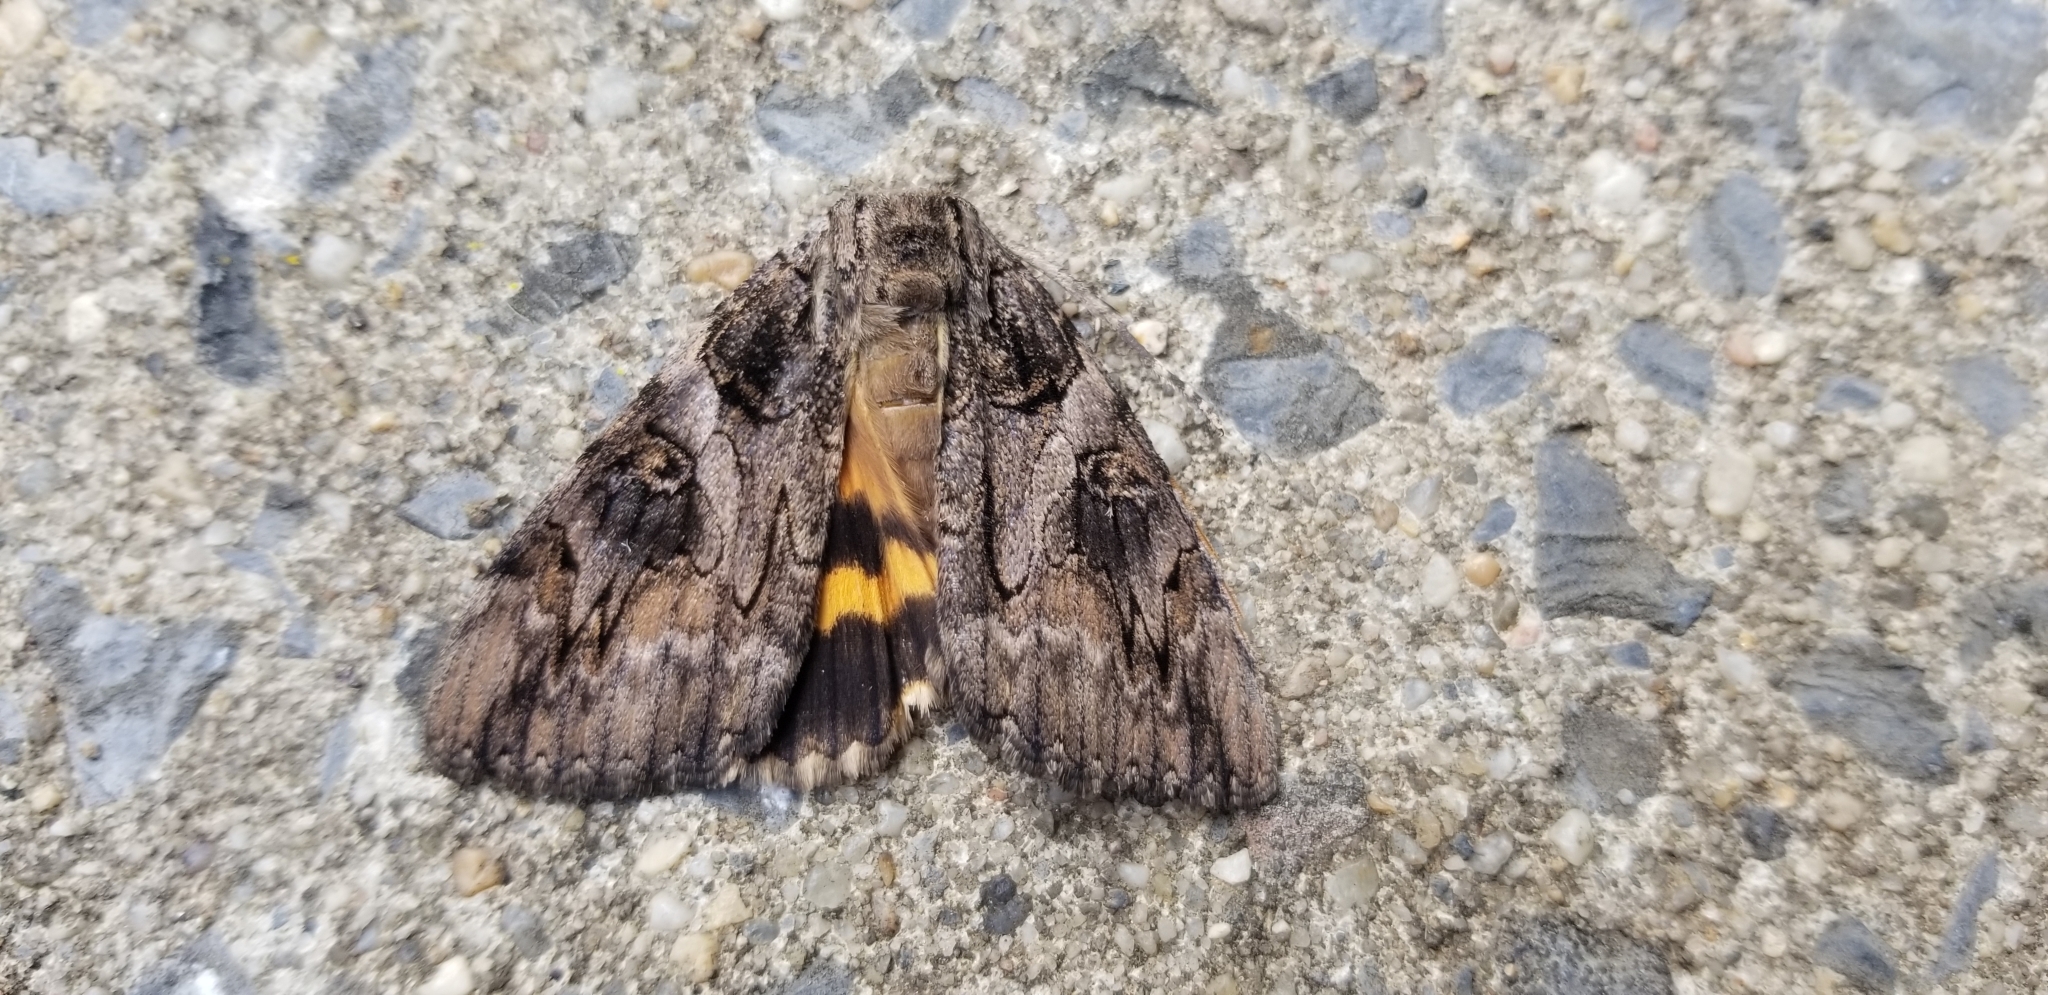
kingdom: Animalia
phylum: Arthropoda
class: Insecta
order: Lepidoptera
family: Erebidae
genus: Catocala
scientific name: Catocala piatrix
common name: The penitent underwing
